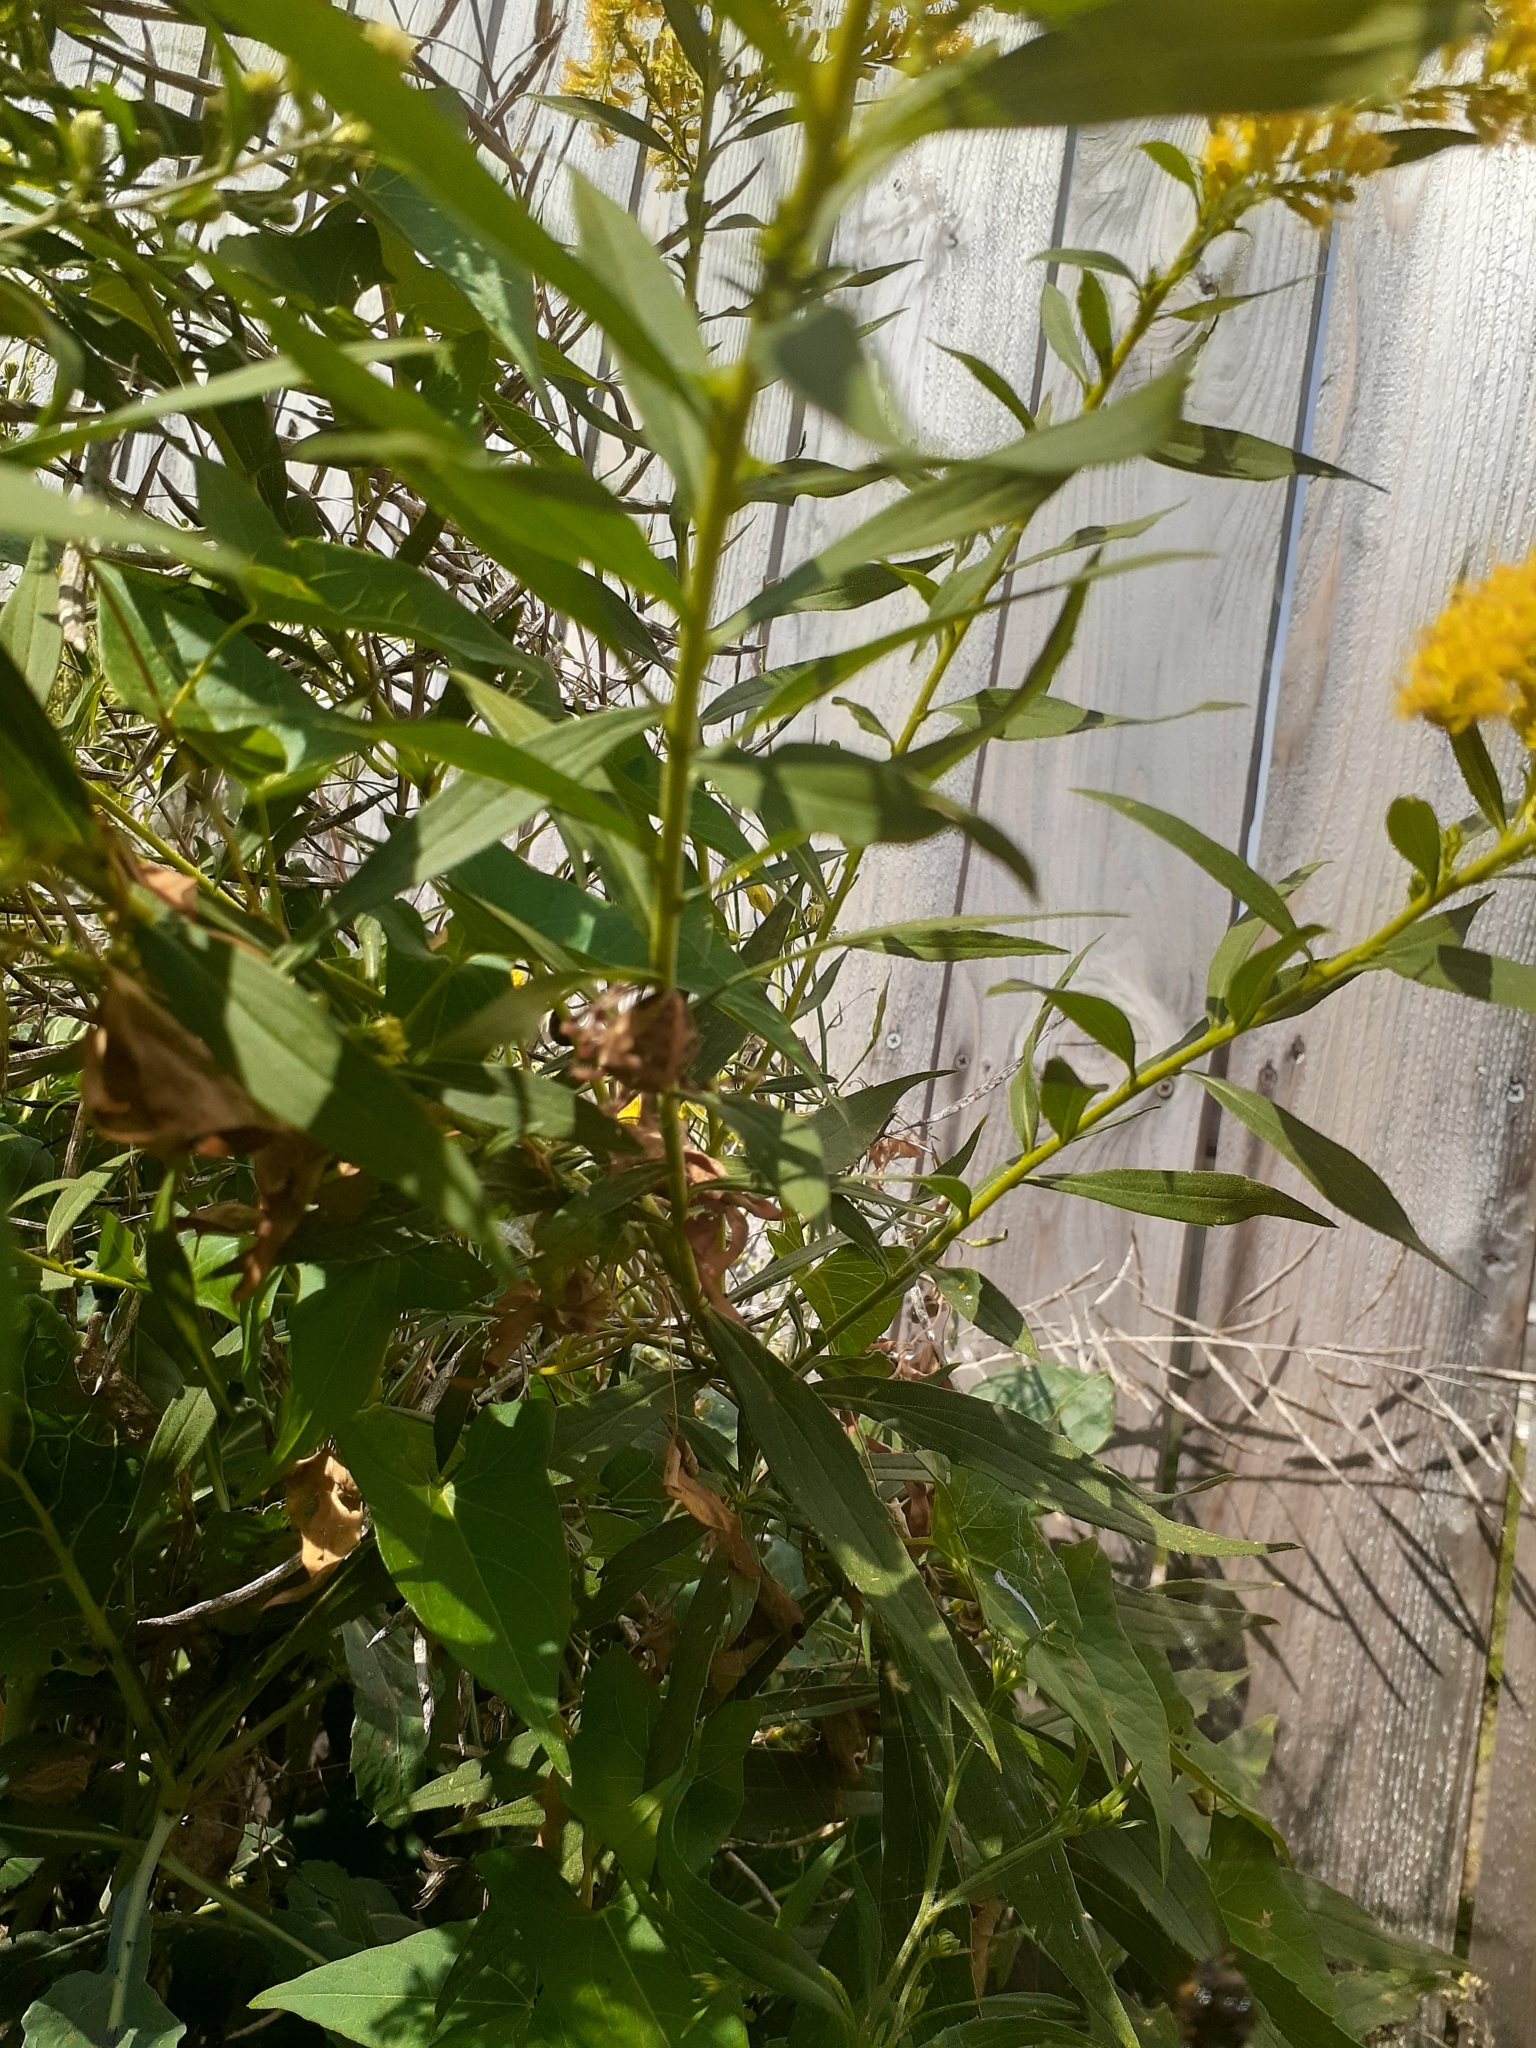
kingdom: Animalia
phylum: Arthropoda
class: Arachnida
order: Araneae
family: Araneidae
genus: Araneus
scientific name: Araneus diadematus
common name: Cross orbweaver
